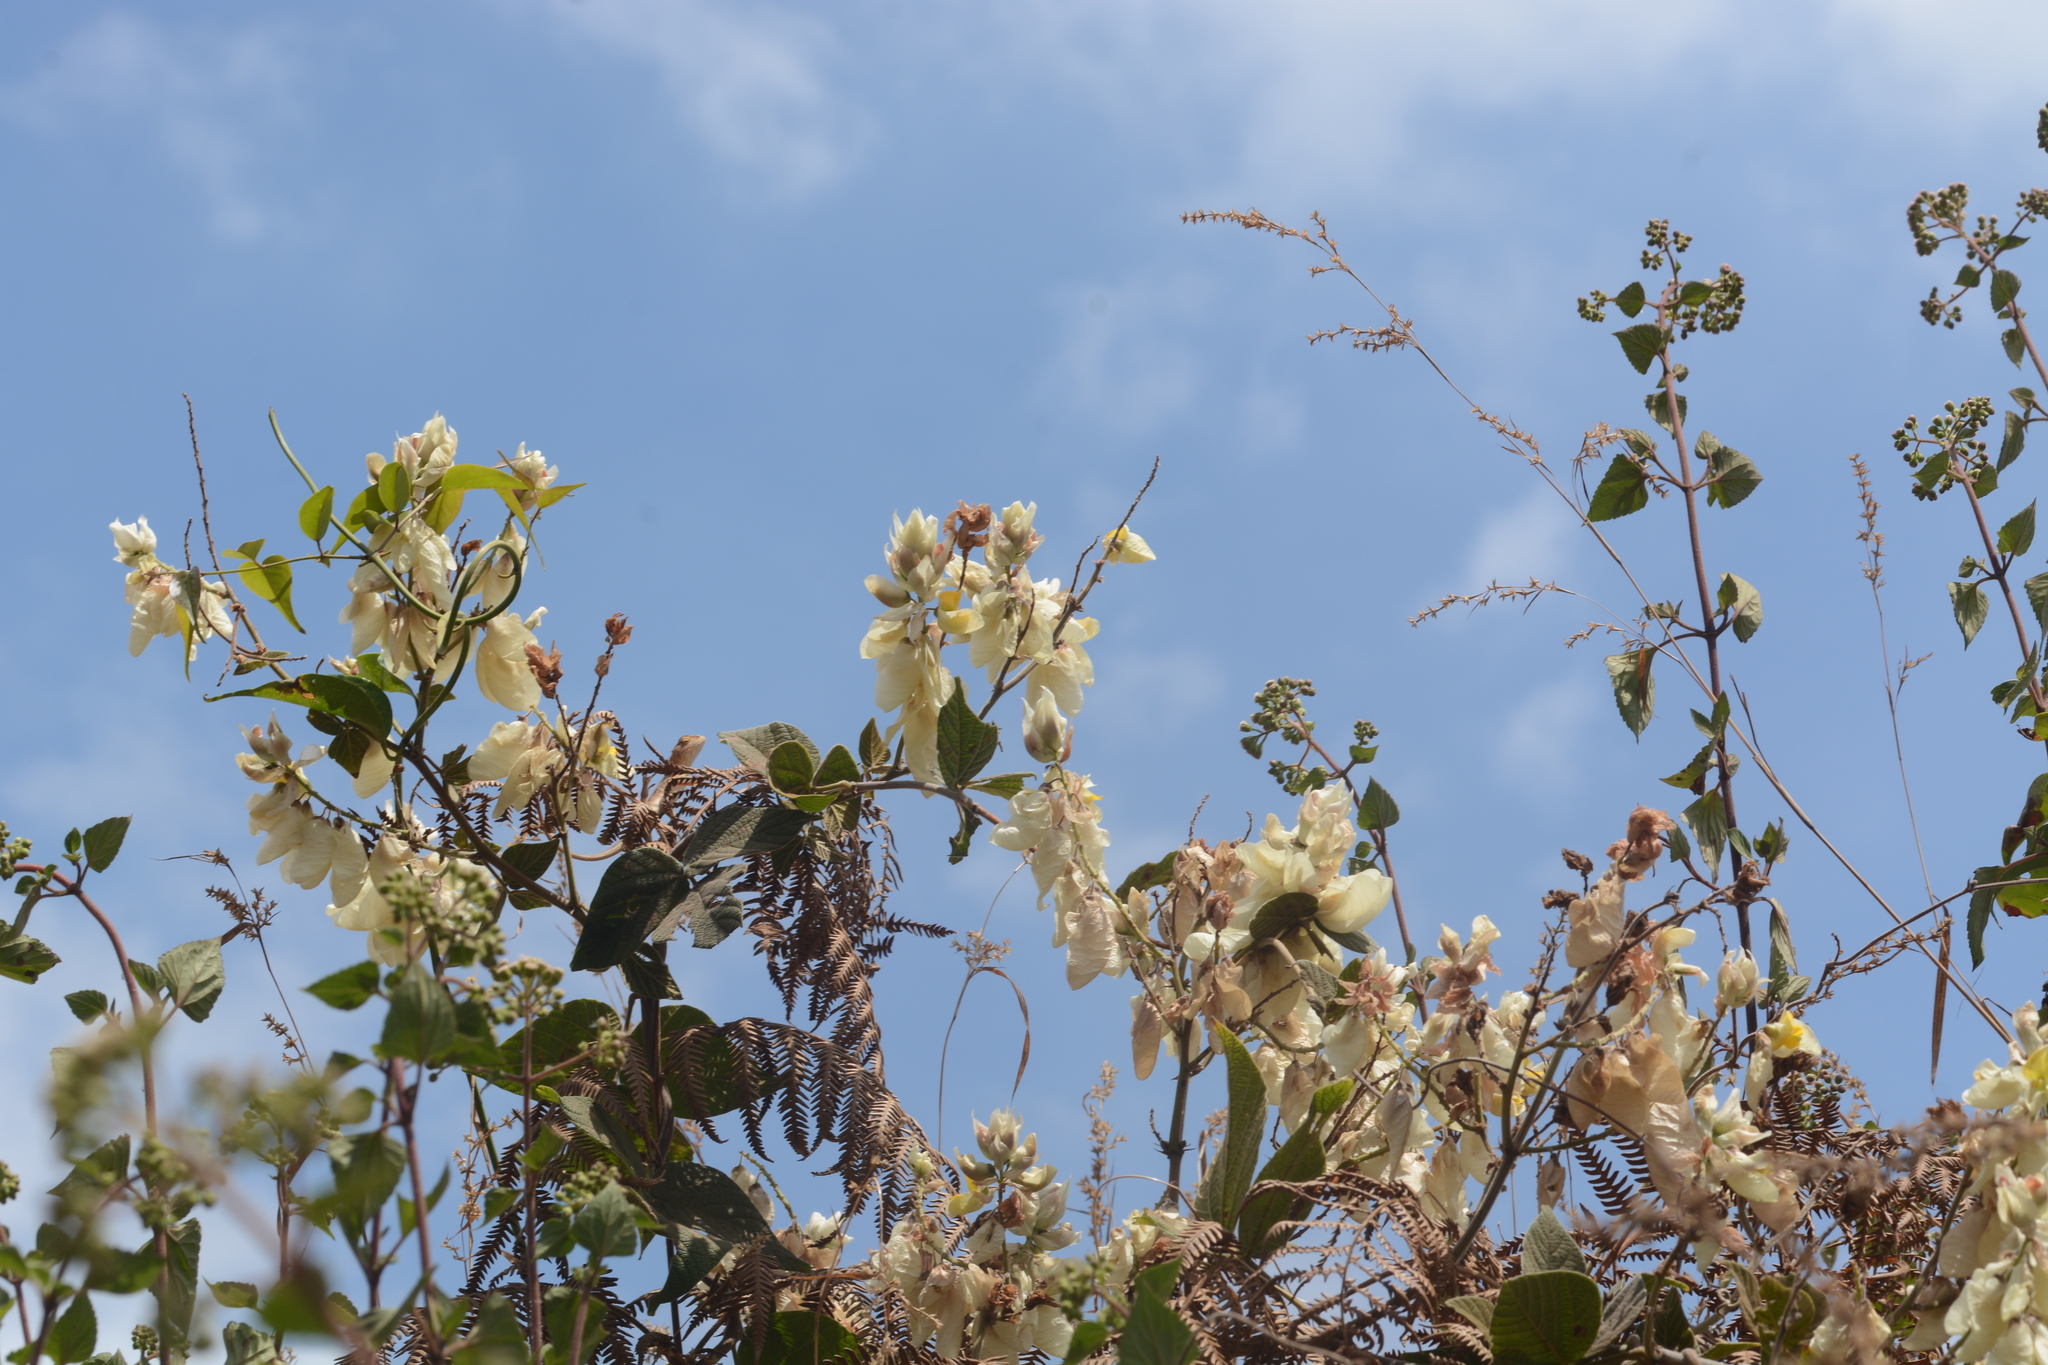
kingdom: Plantae
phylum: Tracheophyta
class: Magnoliopsida
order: Fabales
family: Fabaceae
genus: Paracalyx
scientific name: Paracalyx scariosus
